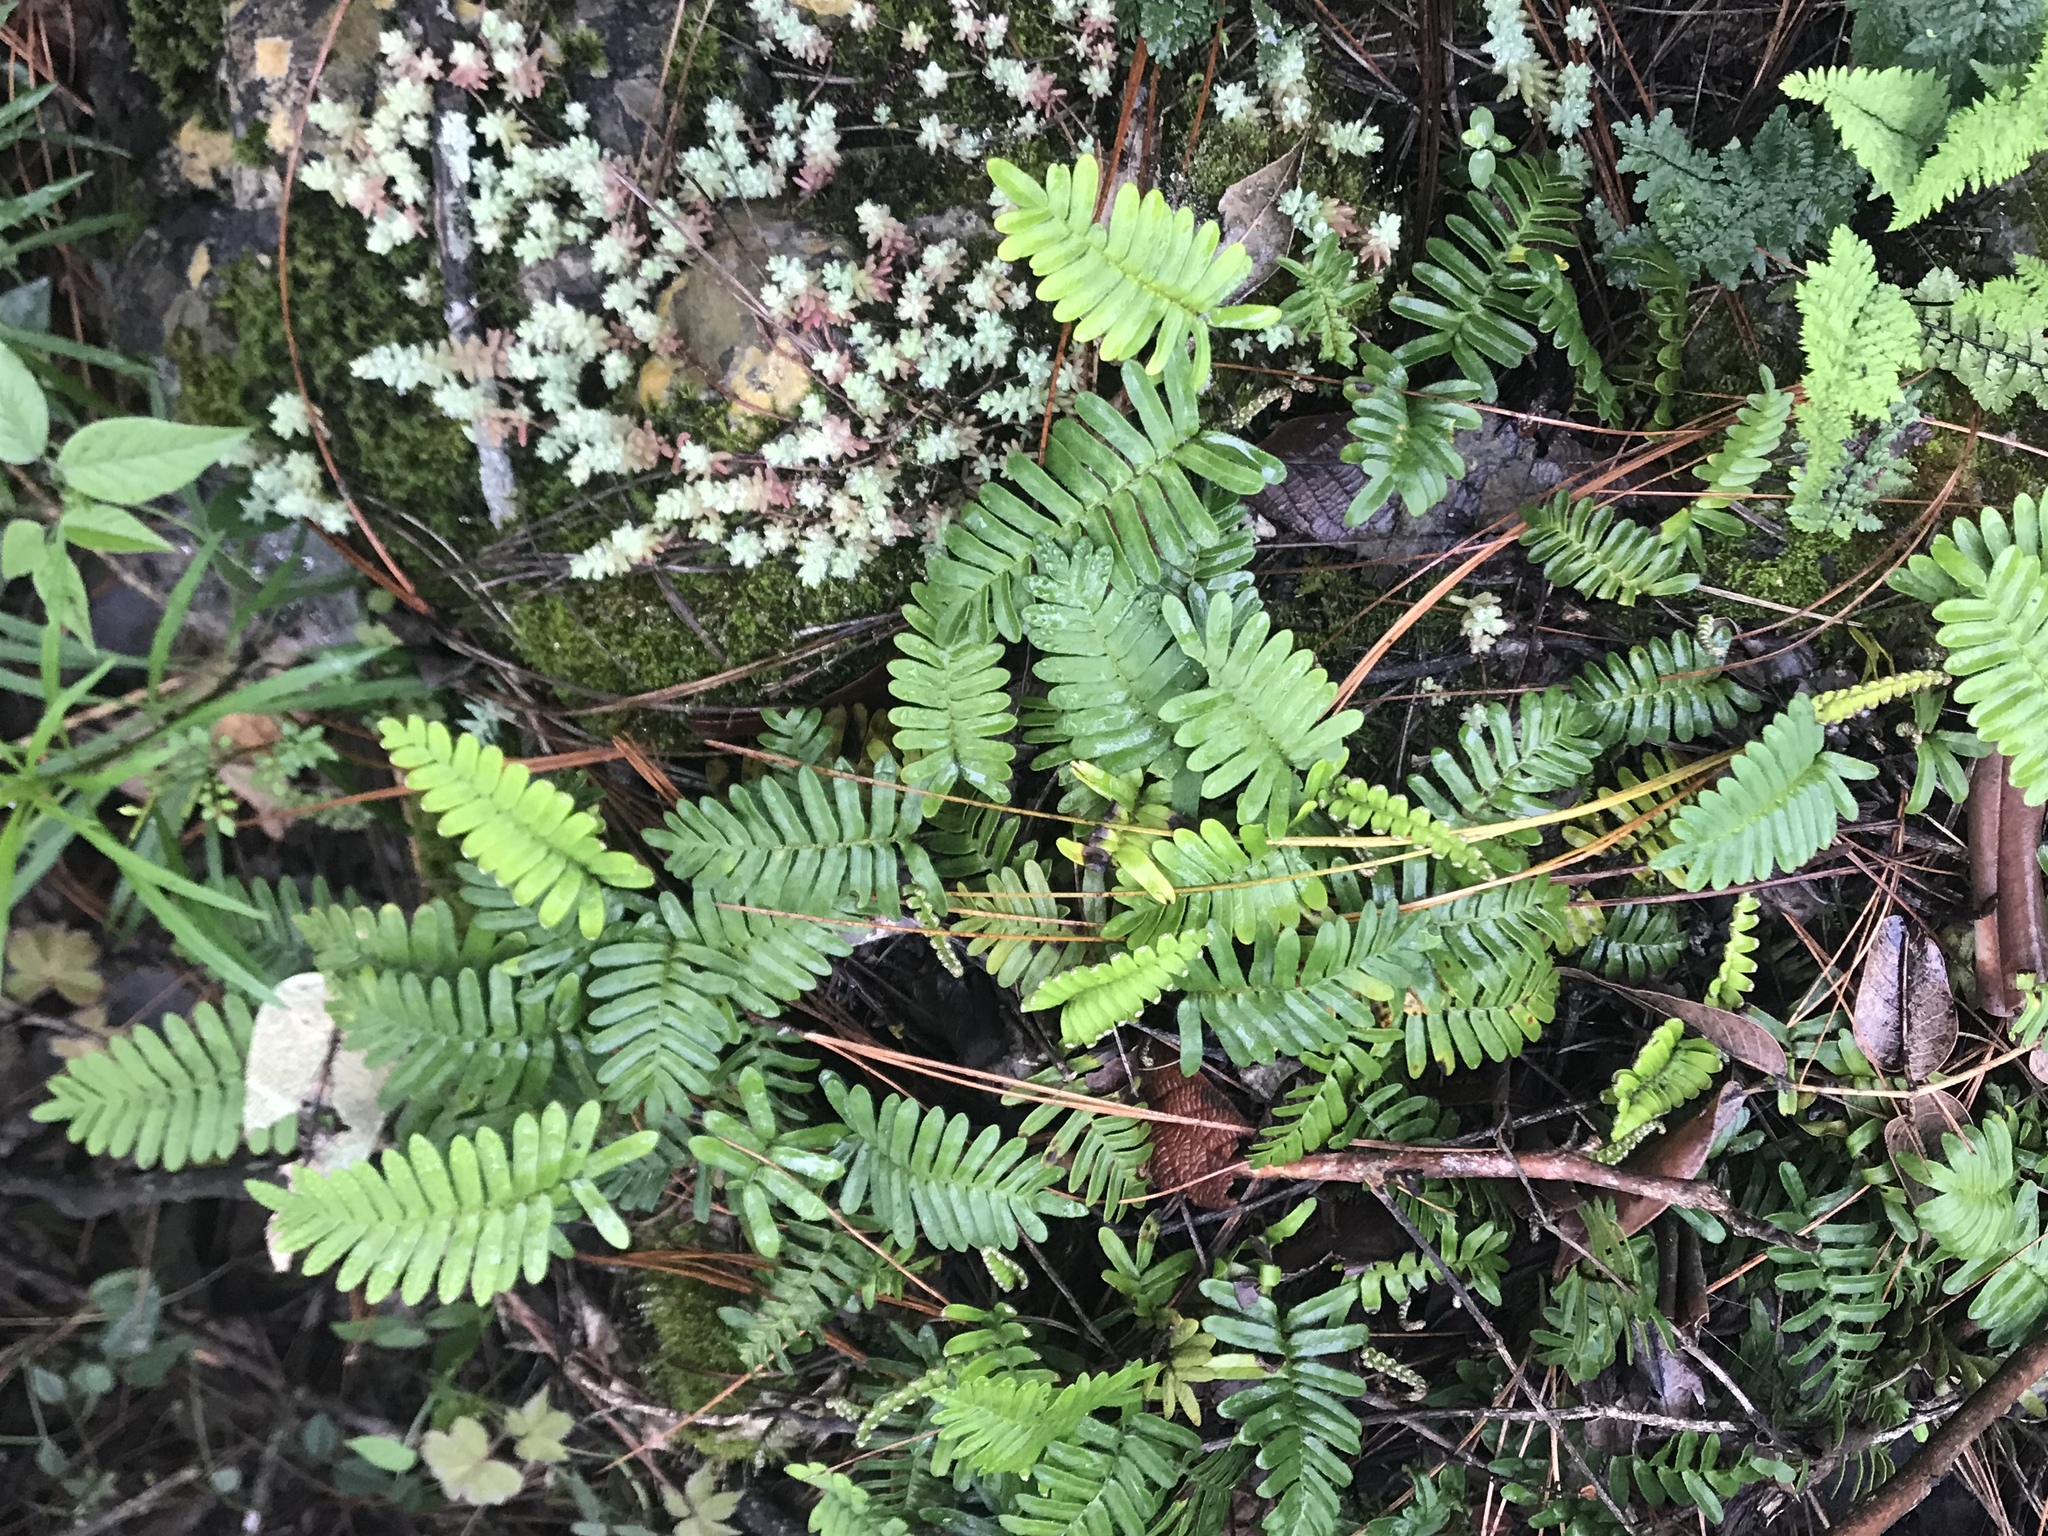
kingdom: Plantae
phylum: Tracheophyta
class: Polypodiopsida
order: Polypodiales
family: Polypodiaceae
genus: Pleopeltis
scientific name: Pleopeltis michauxiana
